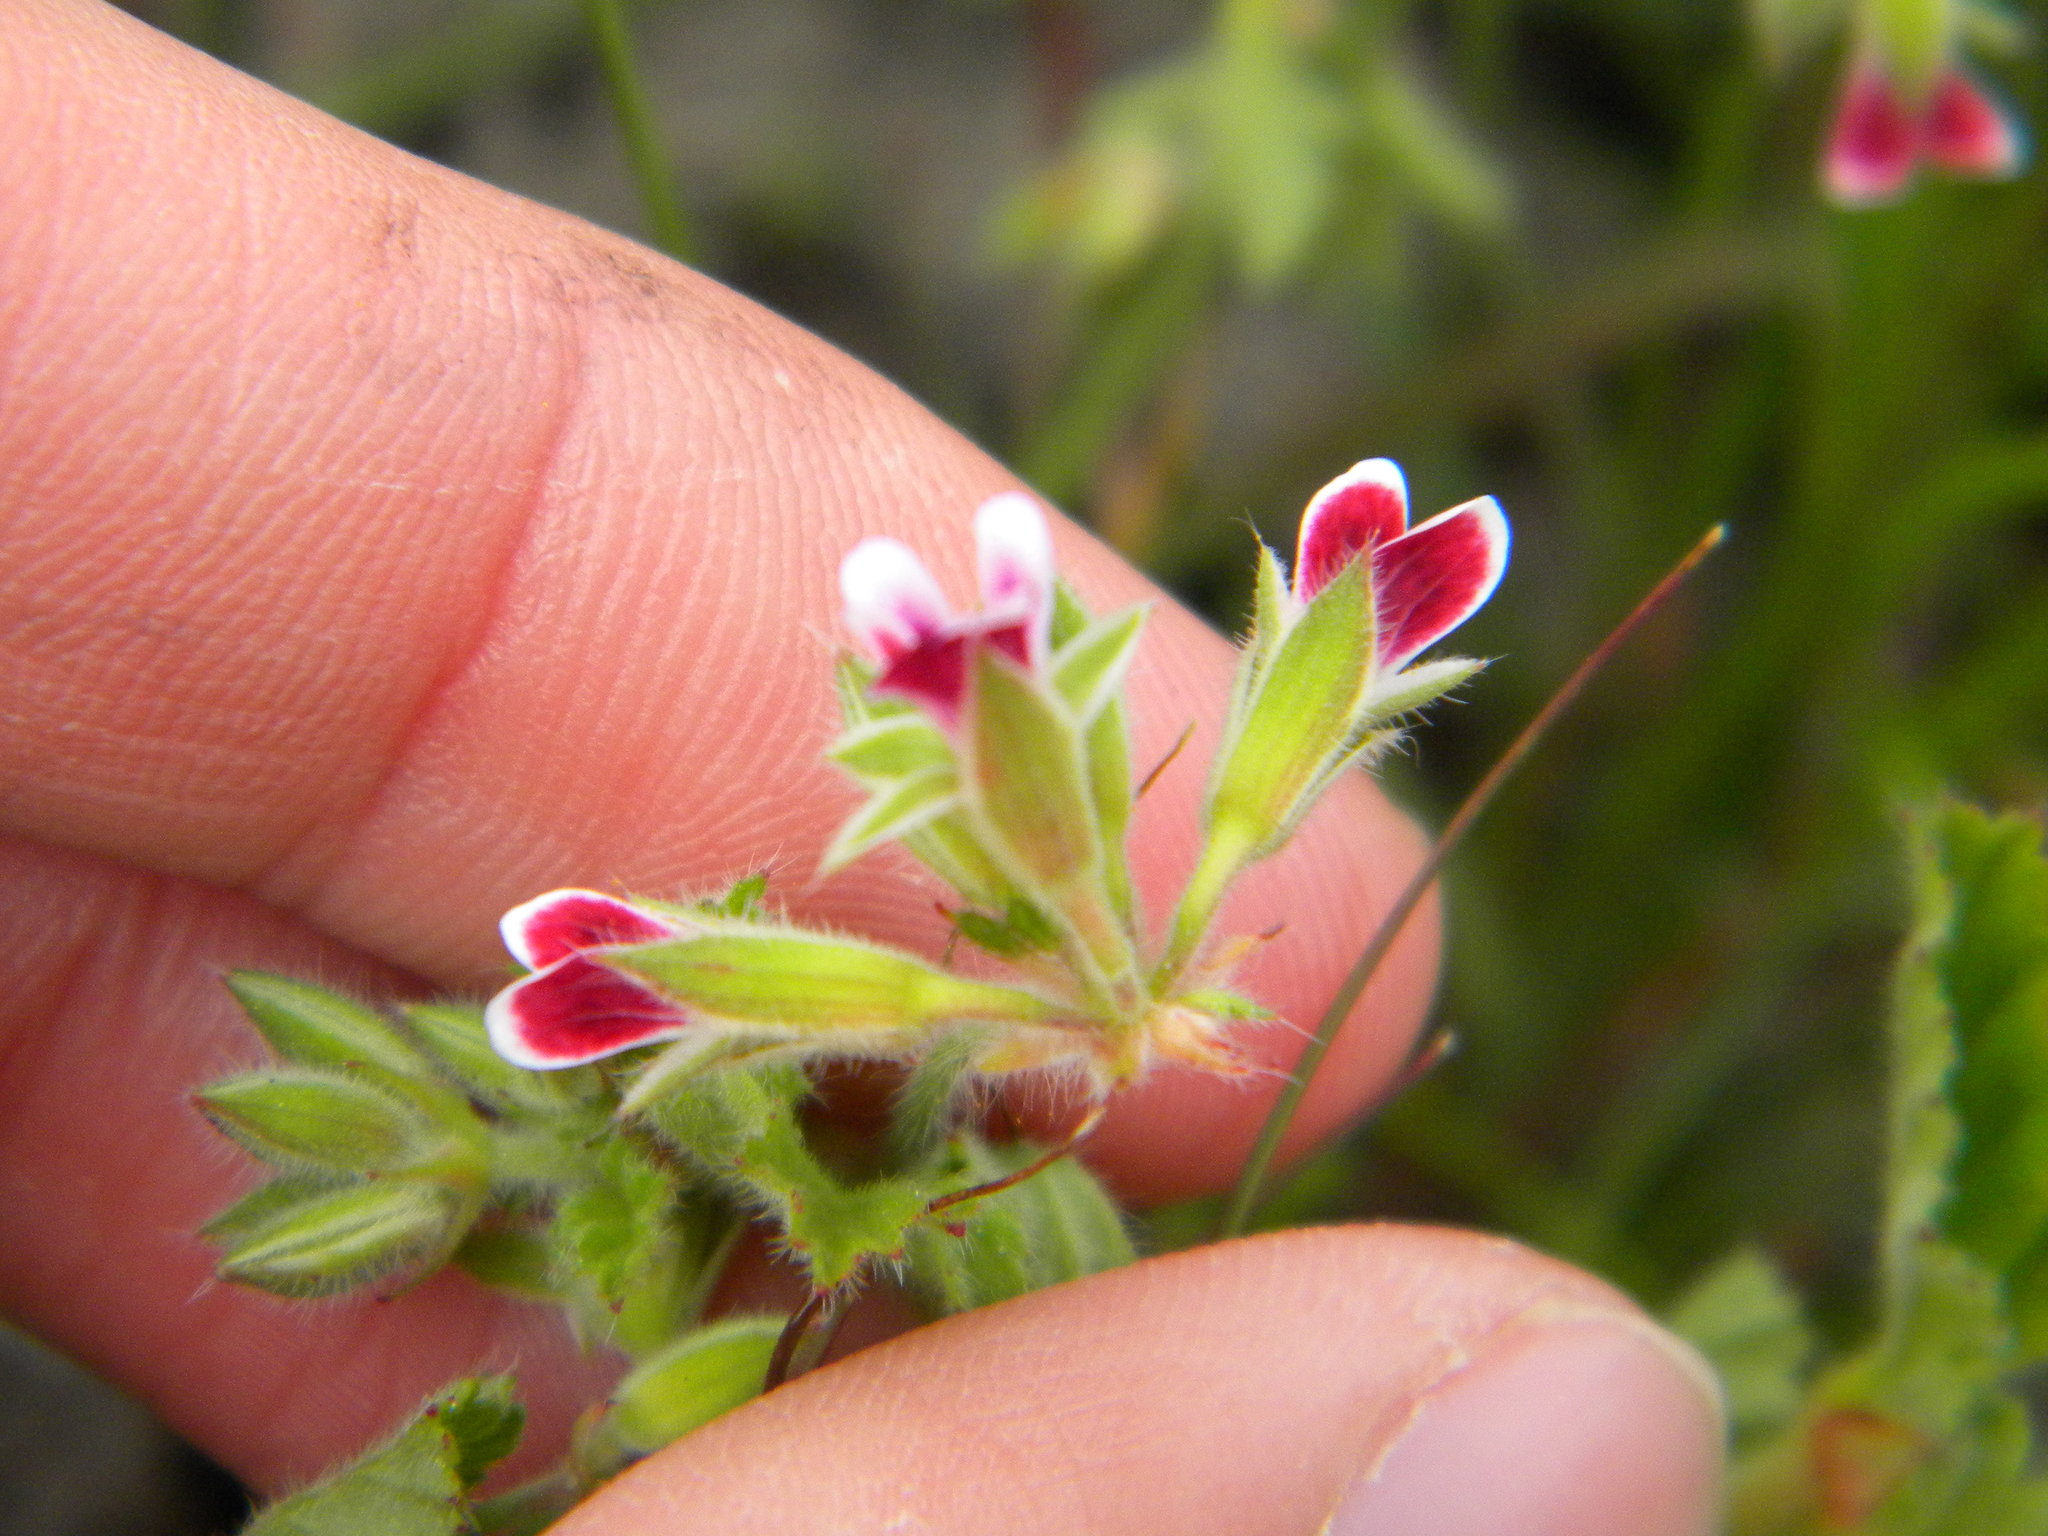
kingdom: Plantae
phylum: Tracheophyta
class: Magnoliopsida
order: Geraniales
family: Geraniaceae
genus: Pelargonium
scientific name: Pelargonium althaeoides
